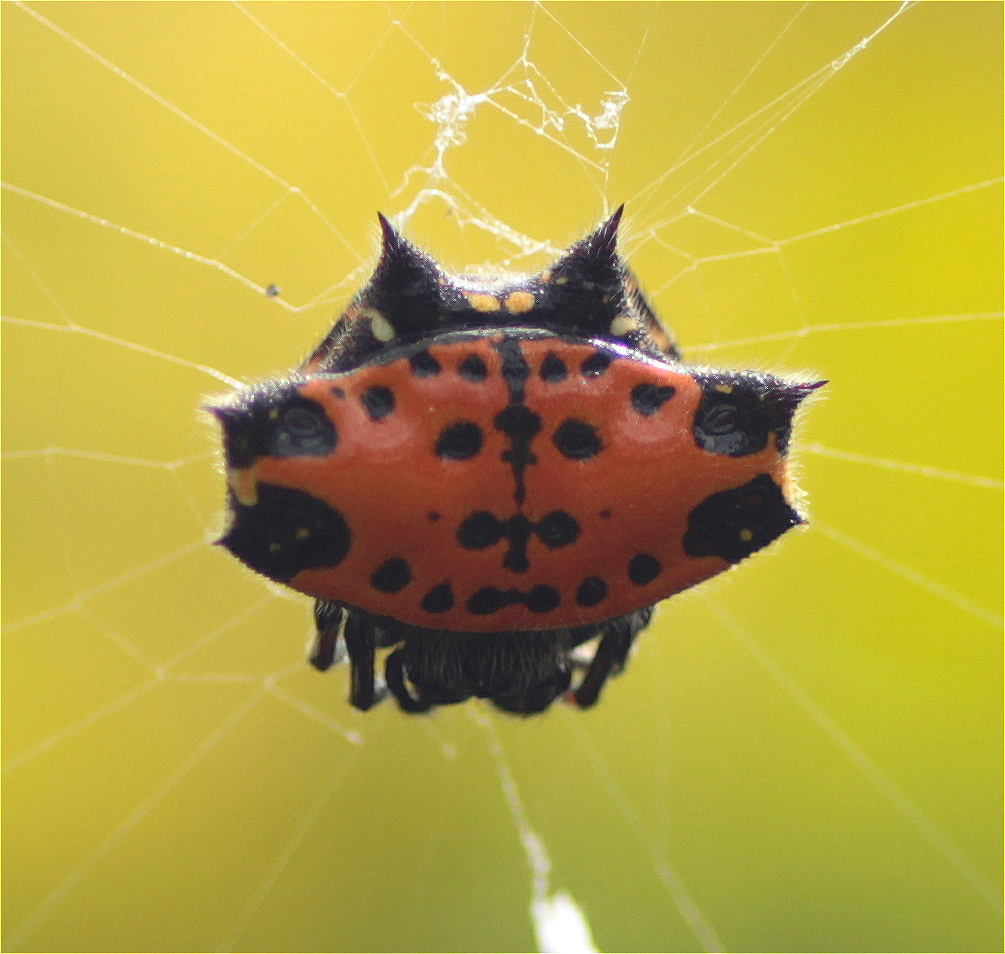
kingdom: Animalia
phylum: Arthropoda
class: Arachnida
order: Araneae
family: Araneidae
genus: Gasteracantha
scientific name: Gasteracantha cancriformis
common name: Orb weavers
